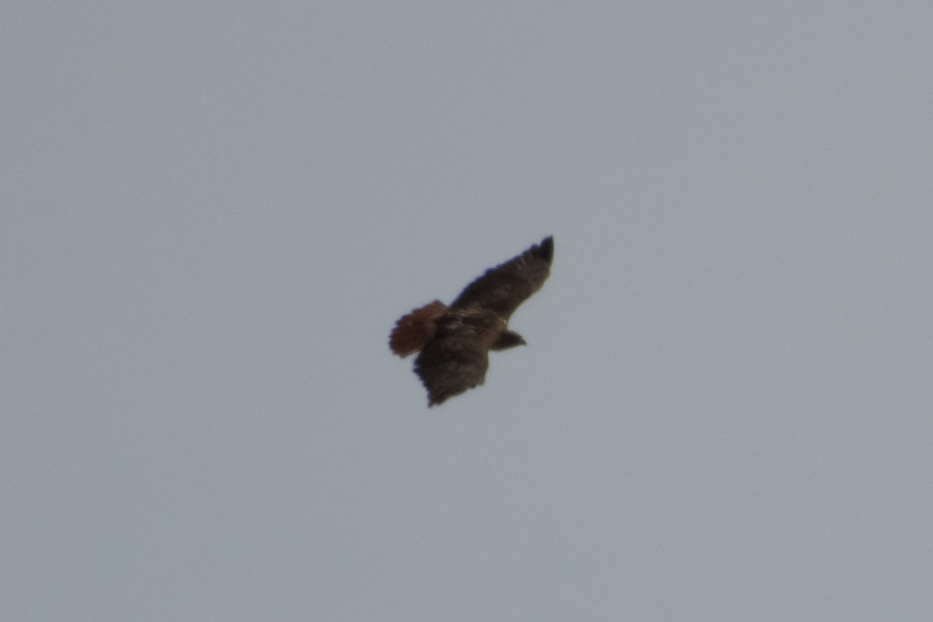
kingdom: Animalia
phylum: Chordata
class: Aves
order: Accipitriformes
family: Accipitridae
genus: Buteo
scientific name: Buteo jamaicensis
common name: Red-tailed hawk
